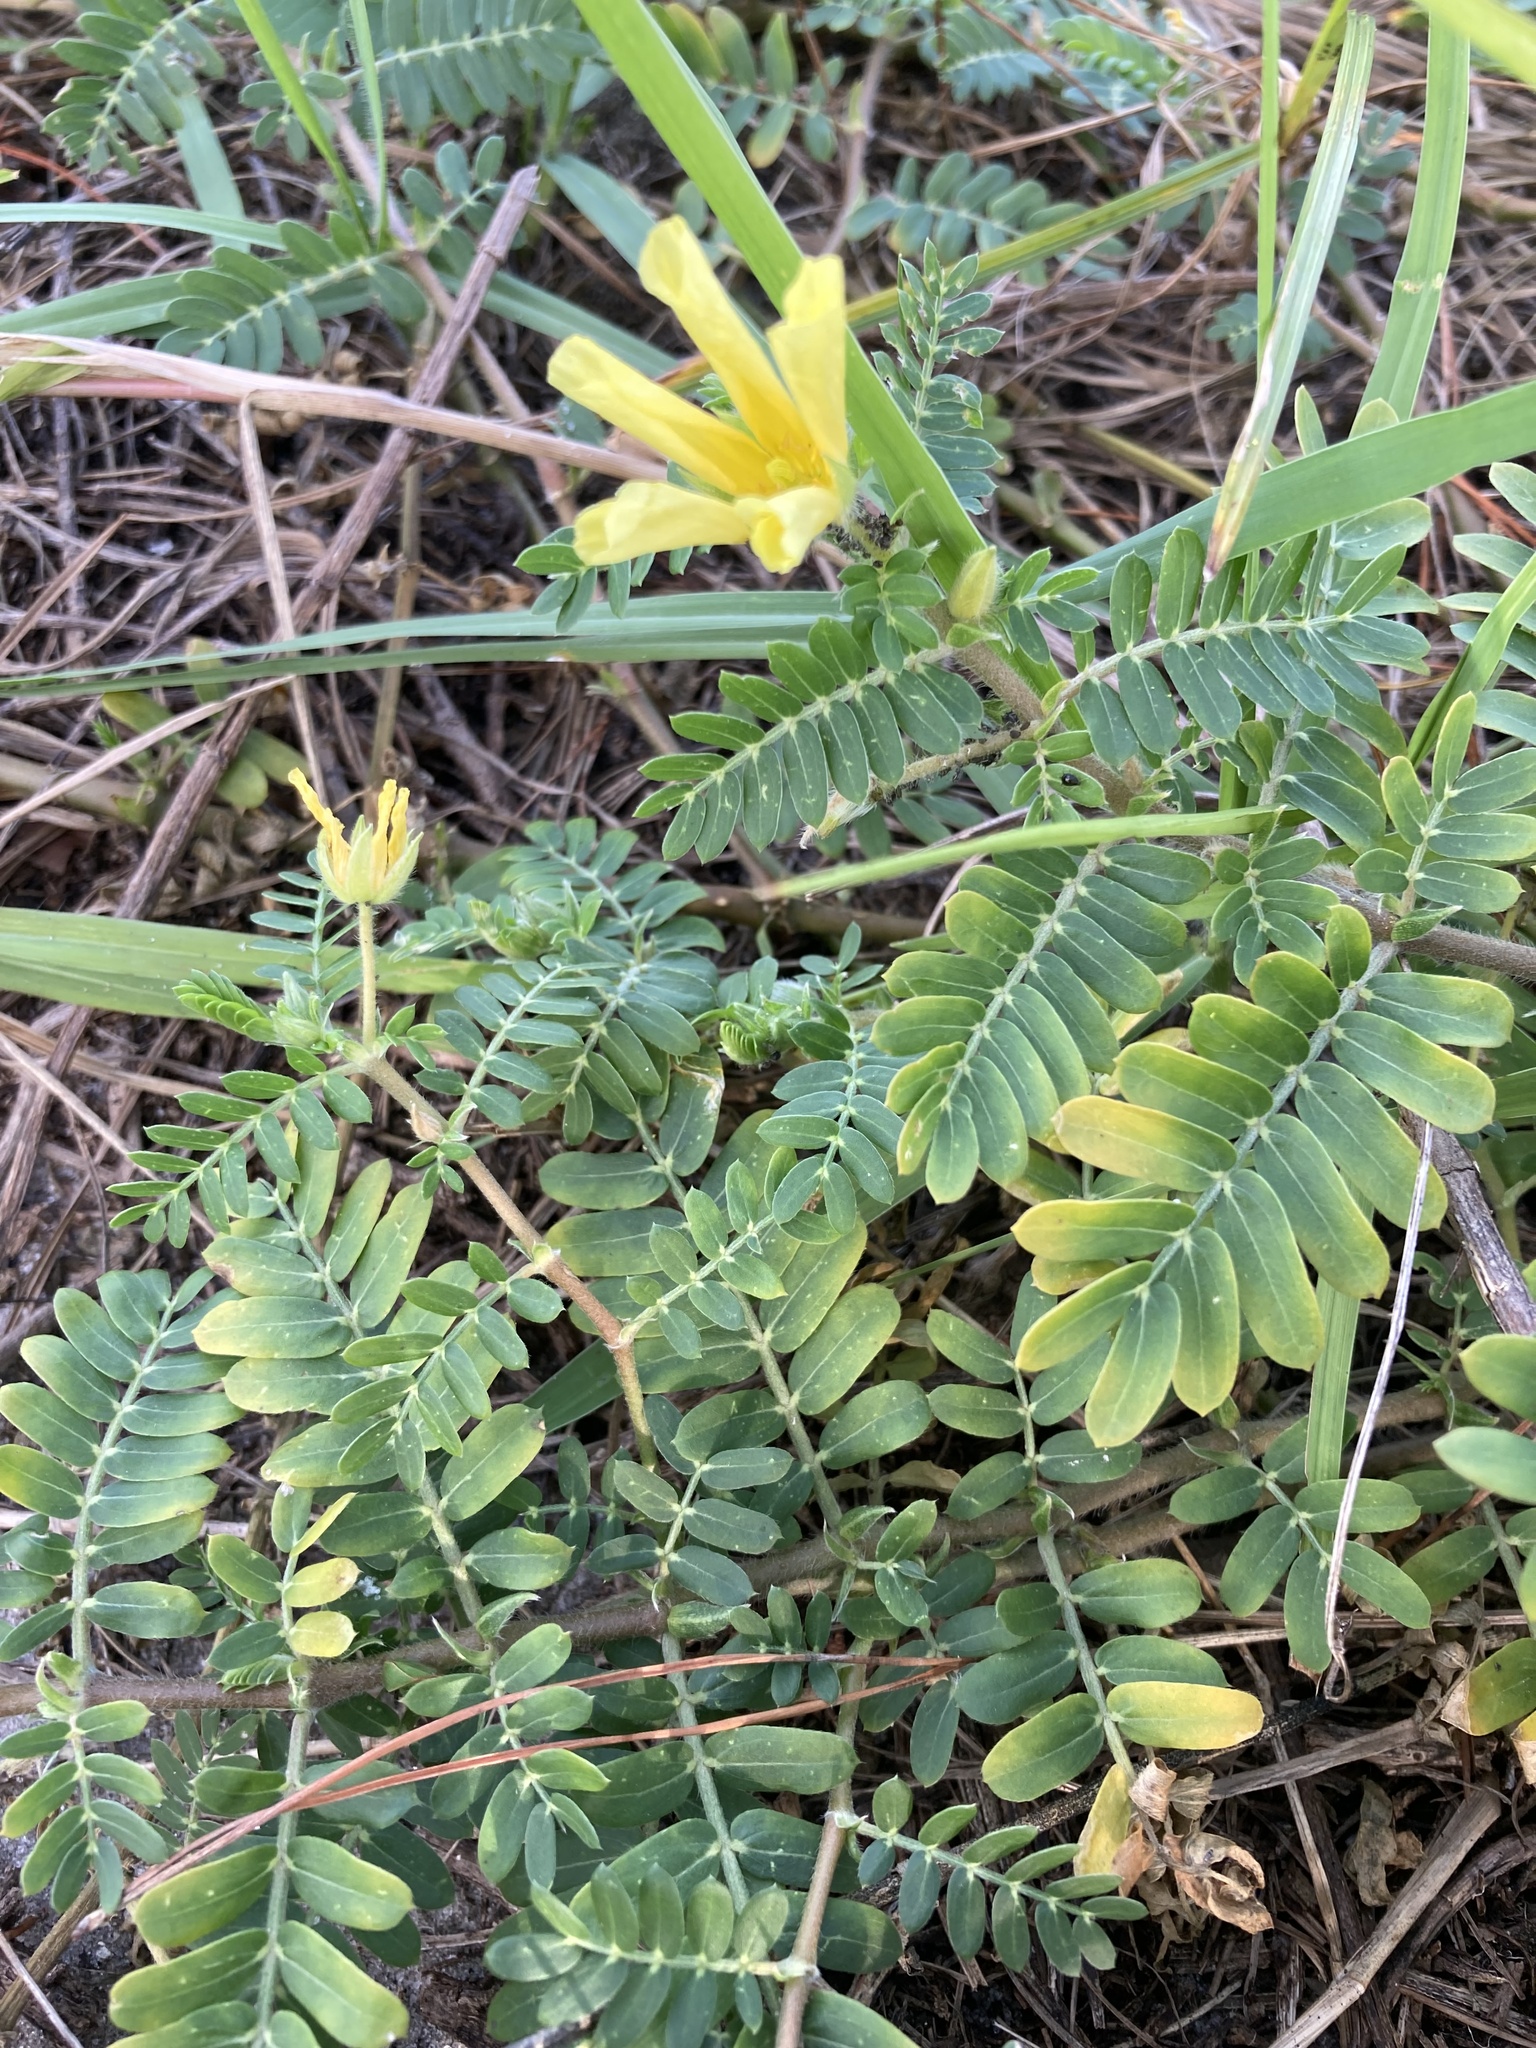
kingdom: Plantae
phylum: Tracheophyta
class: Magnoliopsida
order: Zygophyllales
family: Zygophyllaceae
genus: Tribulus
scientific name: Tribulus cistoides
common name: Jamaican feverplant
